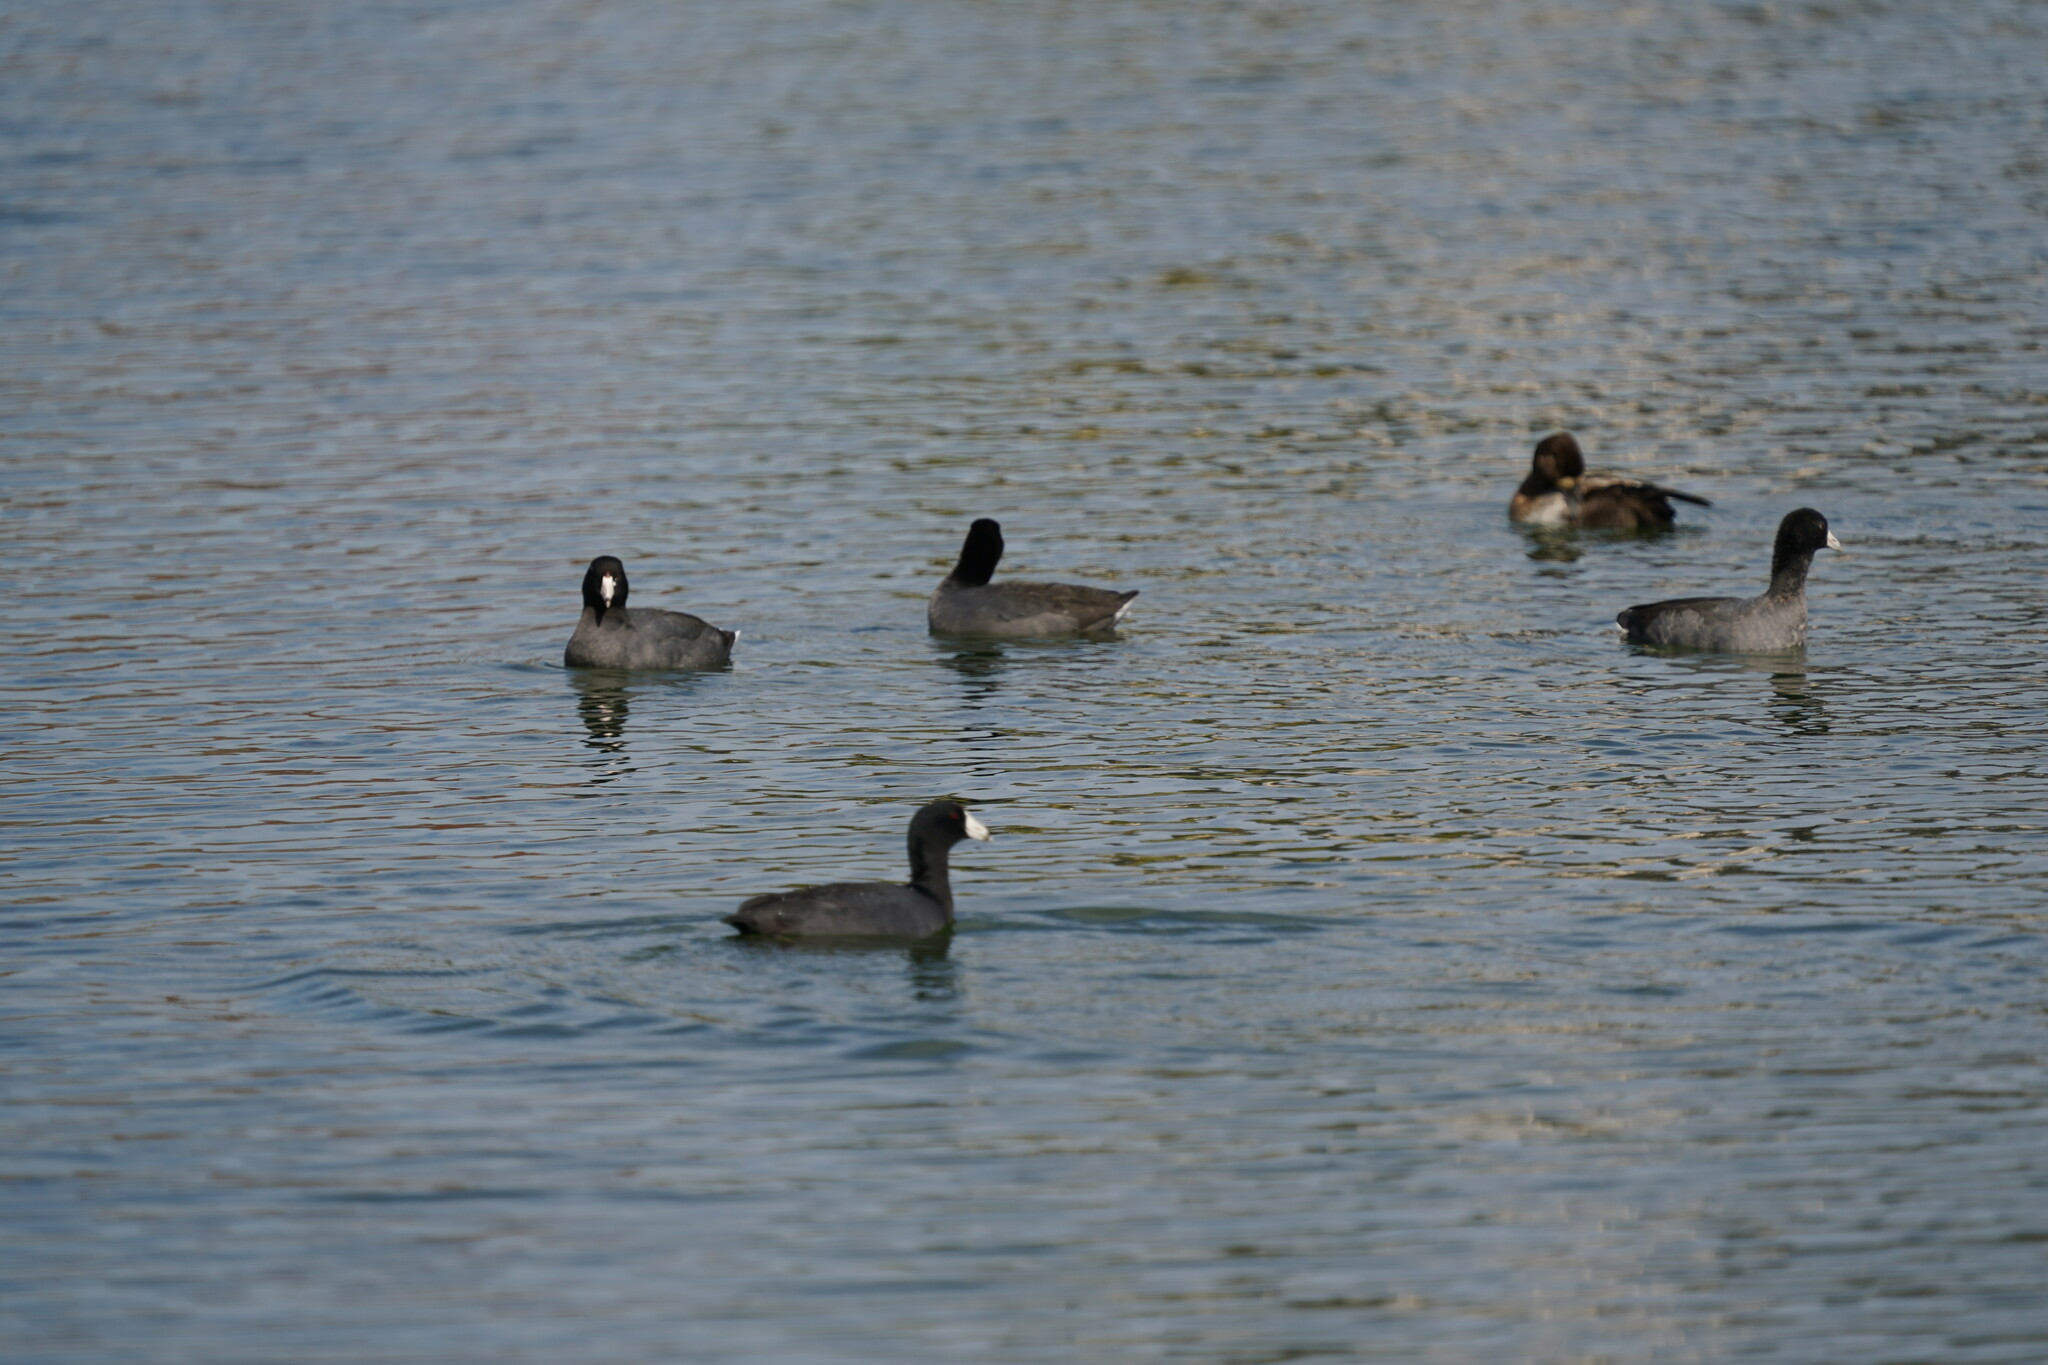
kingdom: Animalia
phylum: Chordata
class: Aves
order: Gruiformes
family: Rallidae
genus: Fulica
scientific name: Fulica americana
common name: American coot
